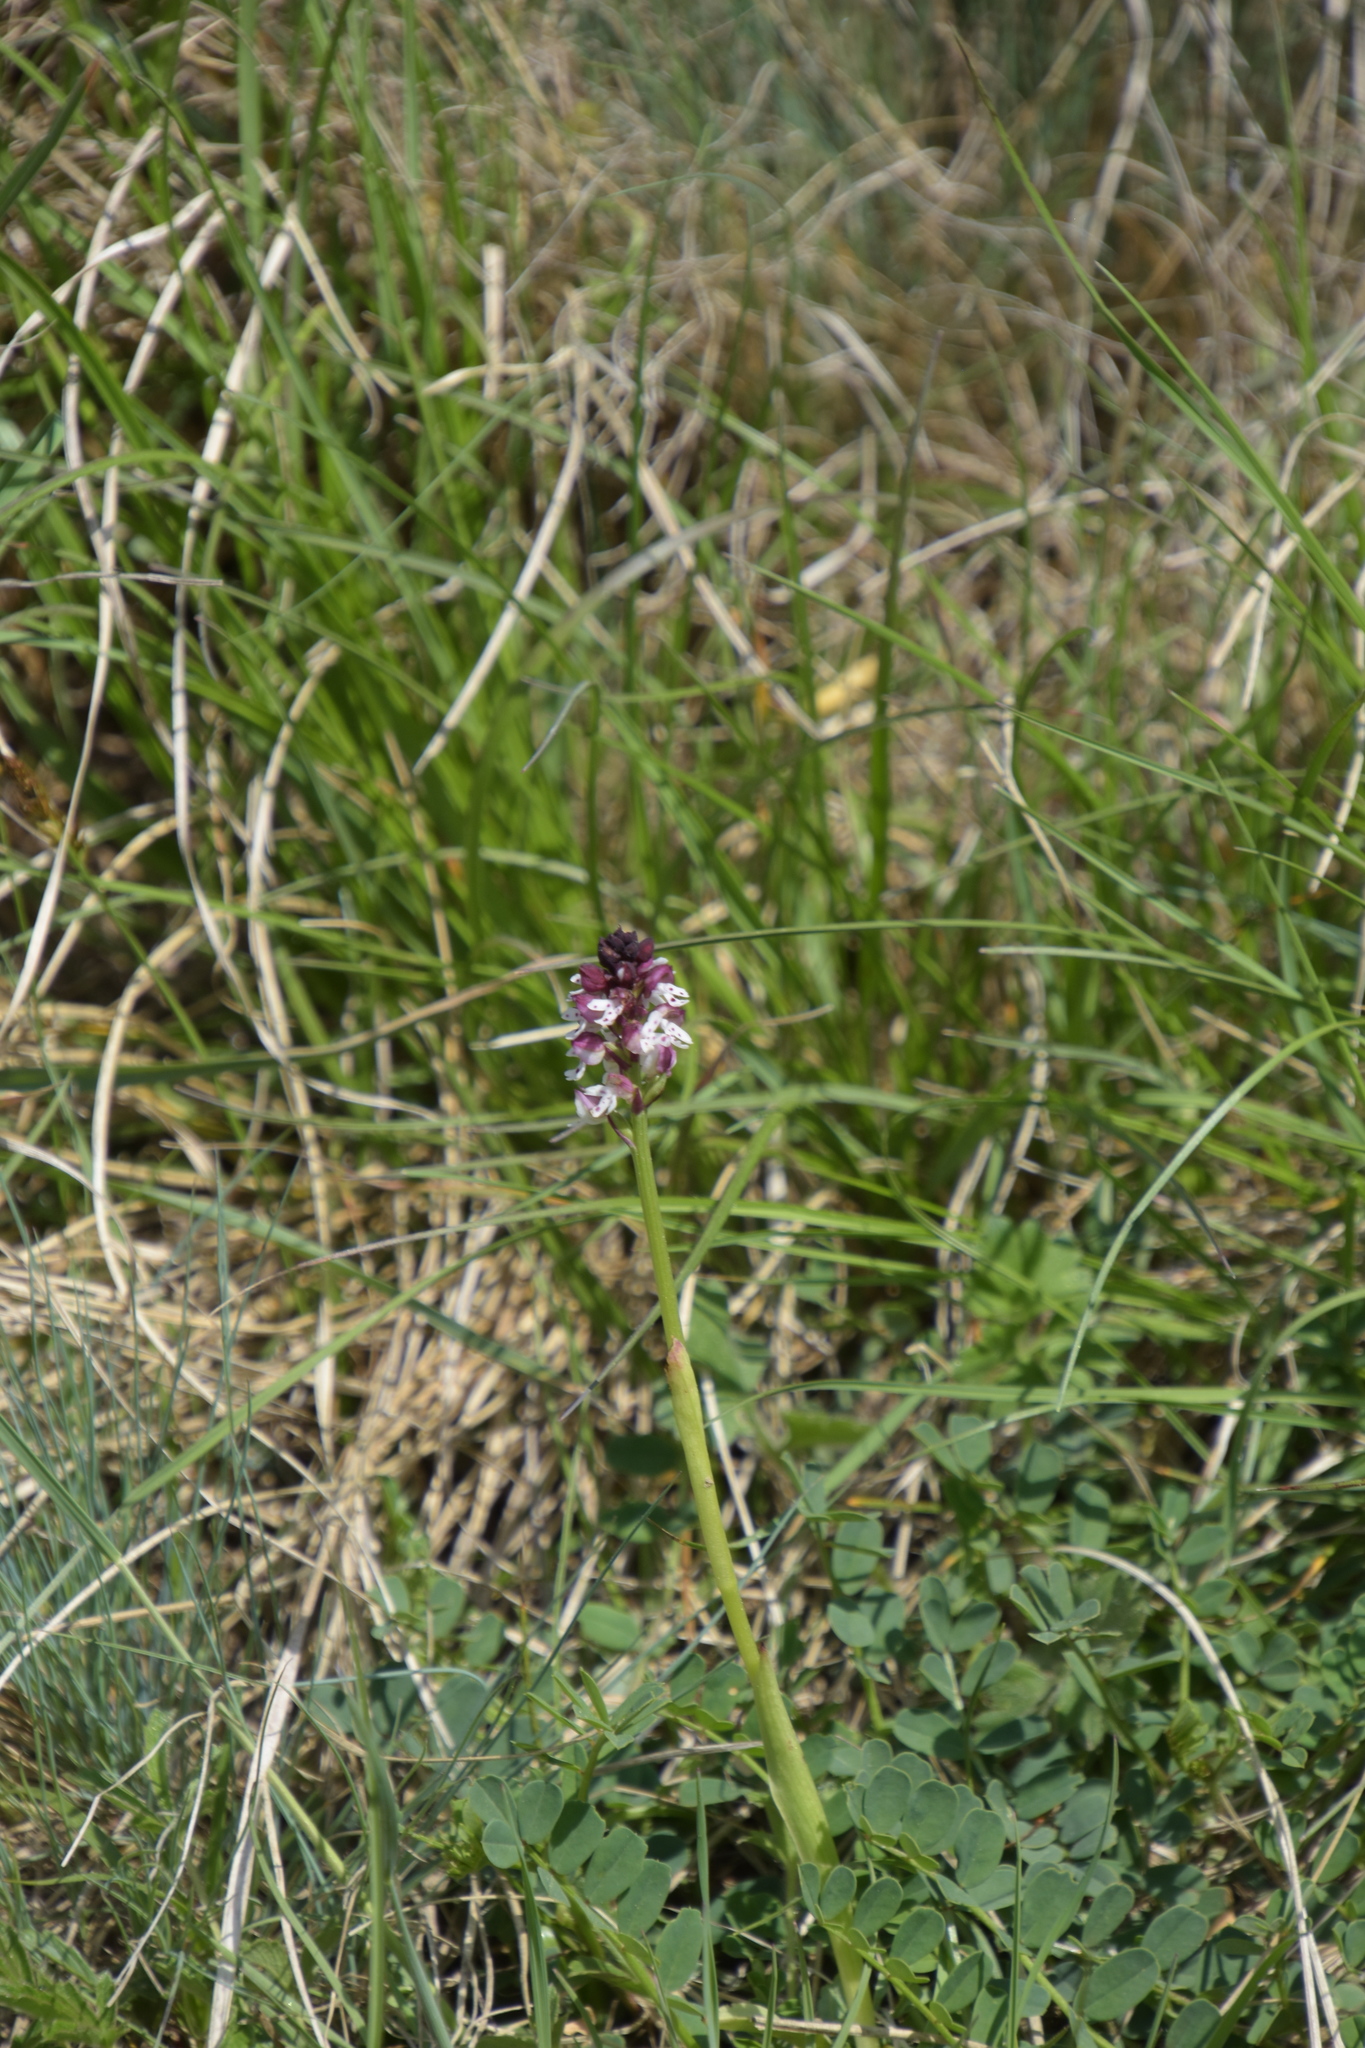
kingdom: Plantae
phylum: Tracheophyta
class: Liliopsida
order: Asparagales
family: Orchidaceae
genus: Neotinea
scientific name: Neotinea ustulata
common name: Burnt orchid
